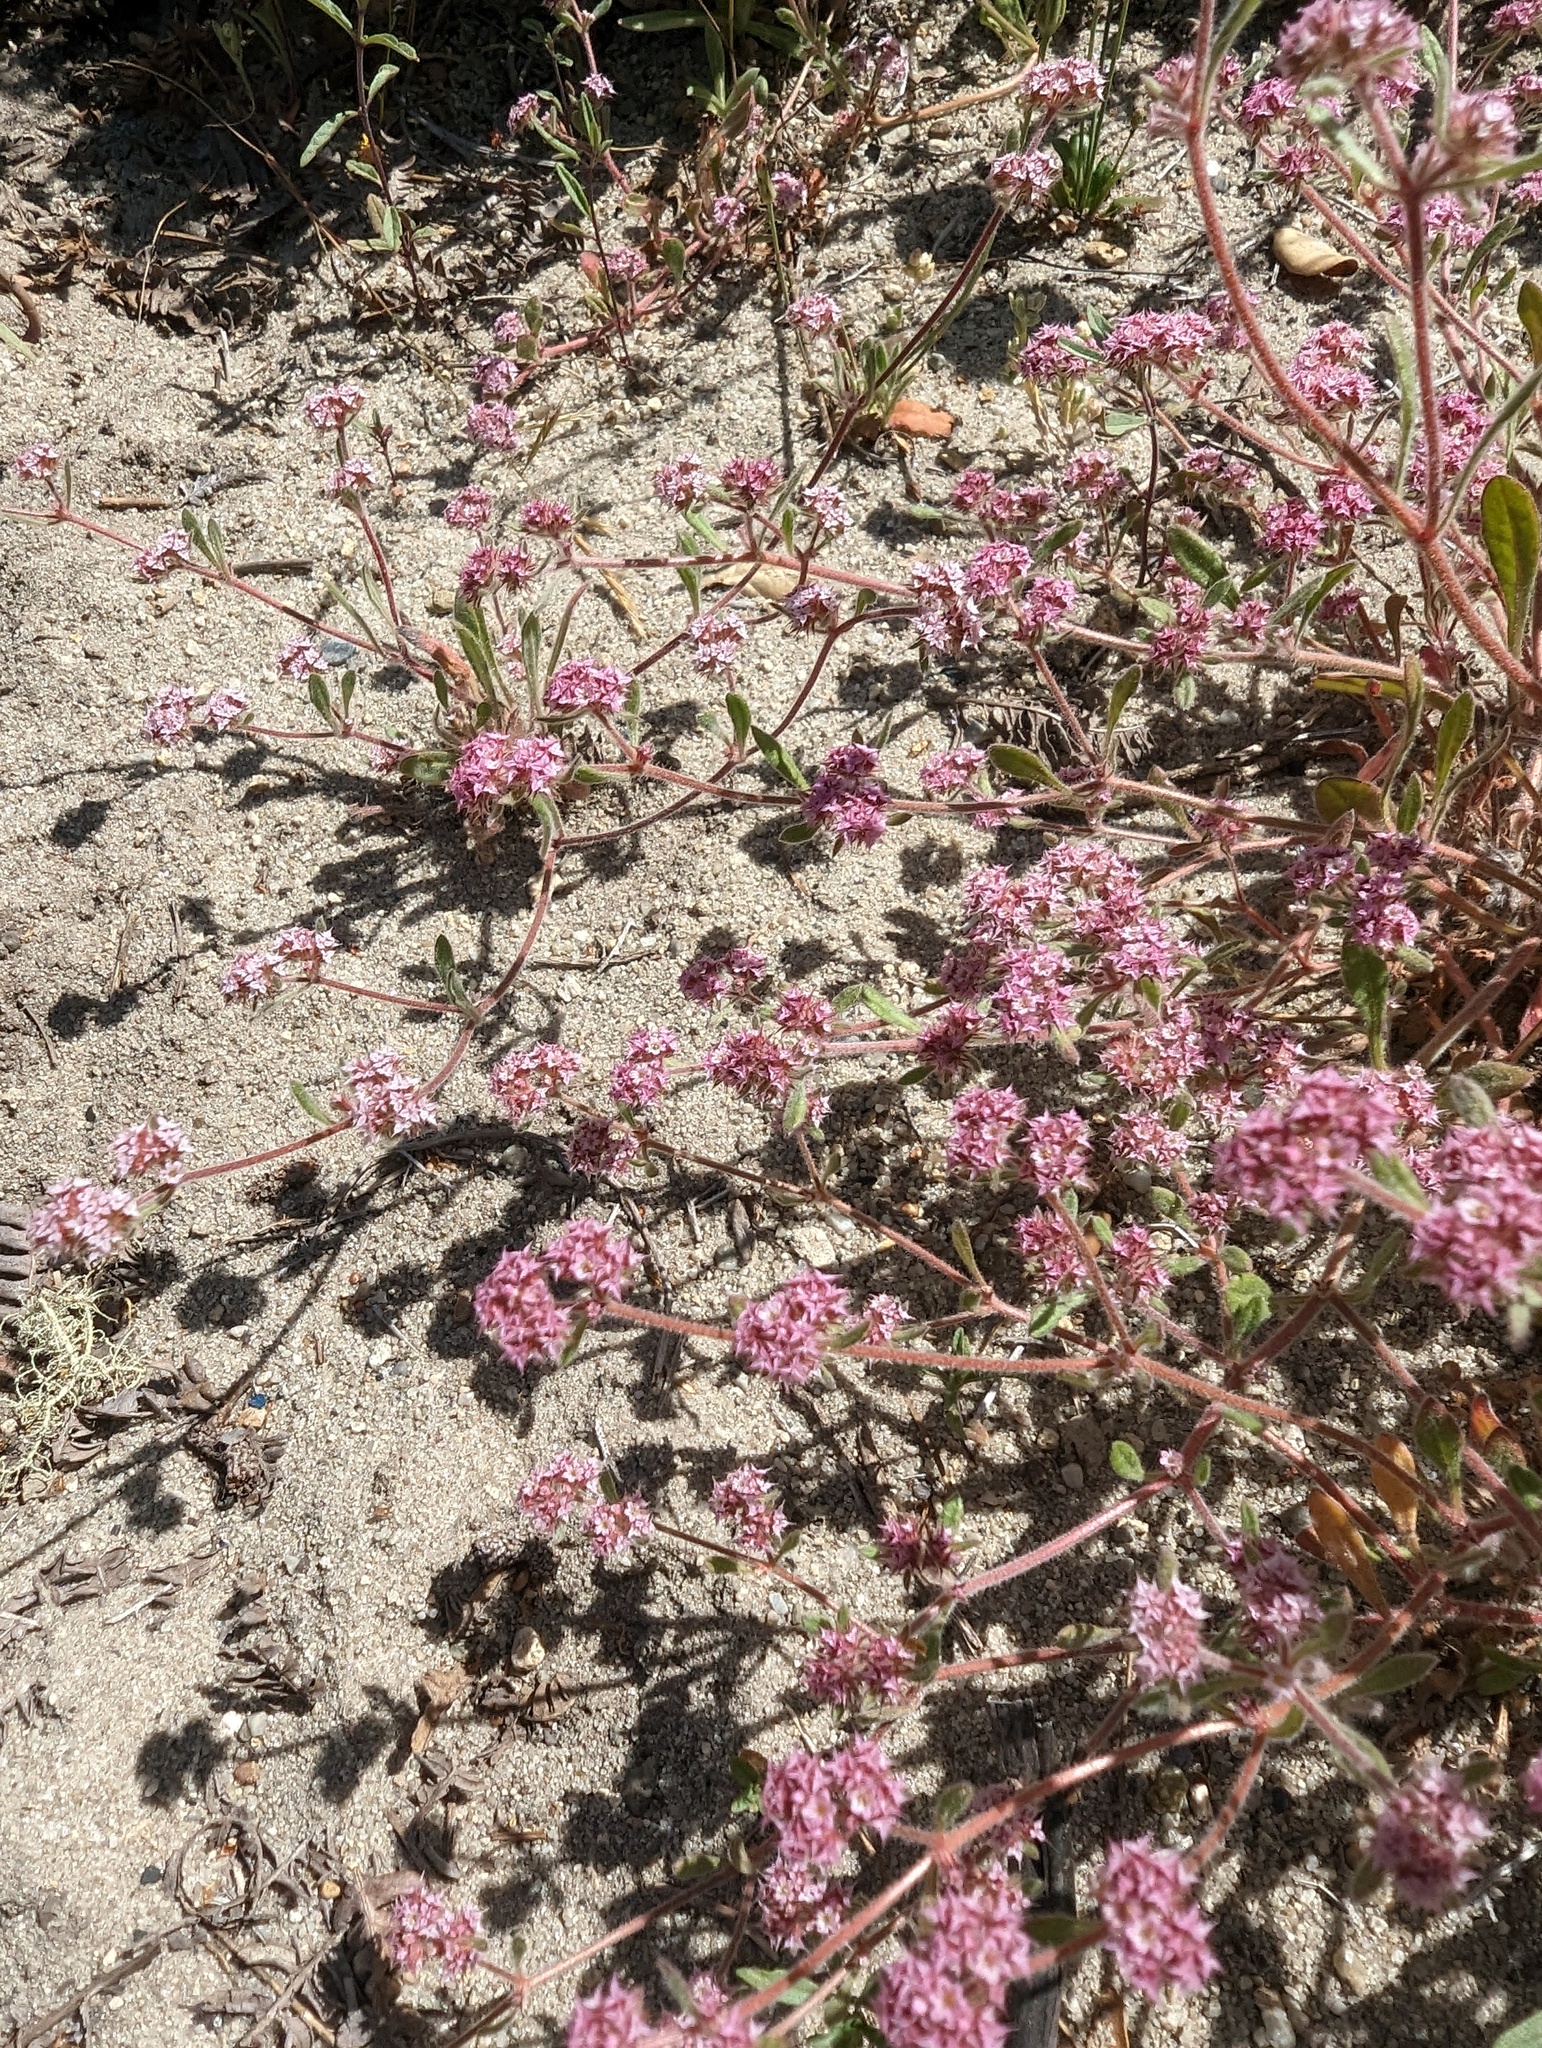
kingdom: Plantae
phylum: Tracheophyta
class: Magnoliopsida
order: Caryophyllales
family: Polygonaceae
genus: Chorizanthe
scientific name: Chorizanthe pungens
